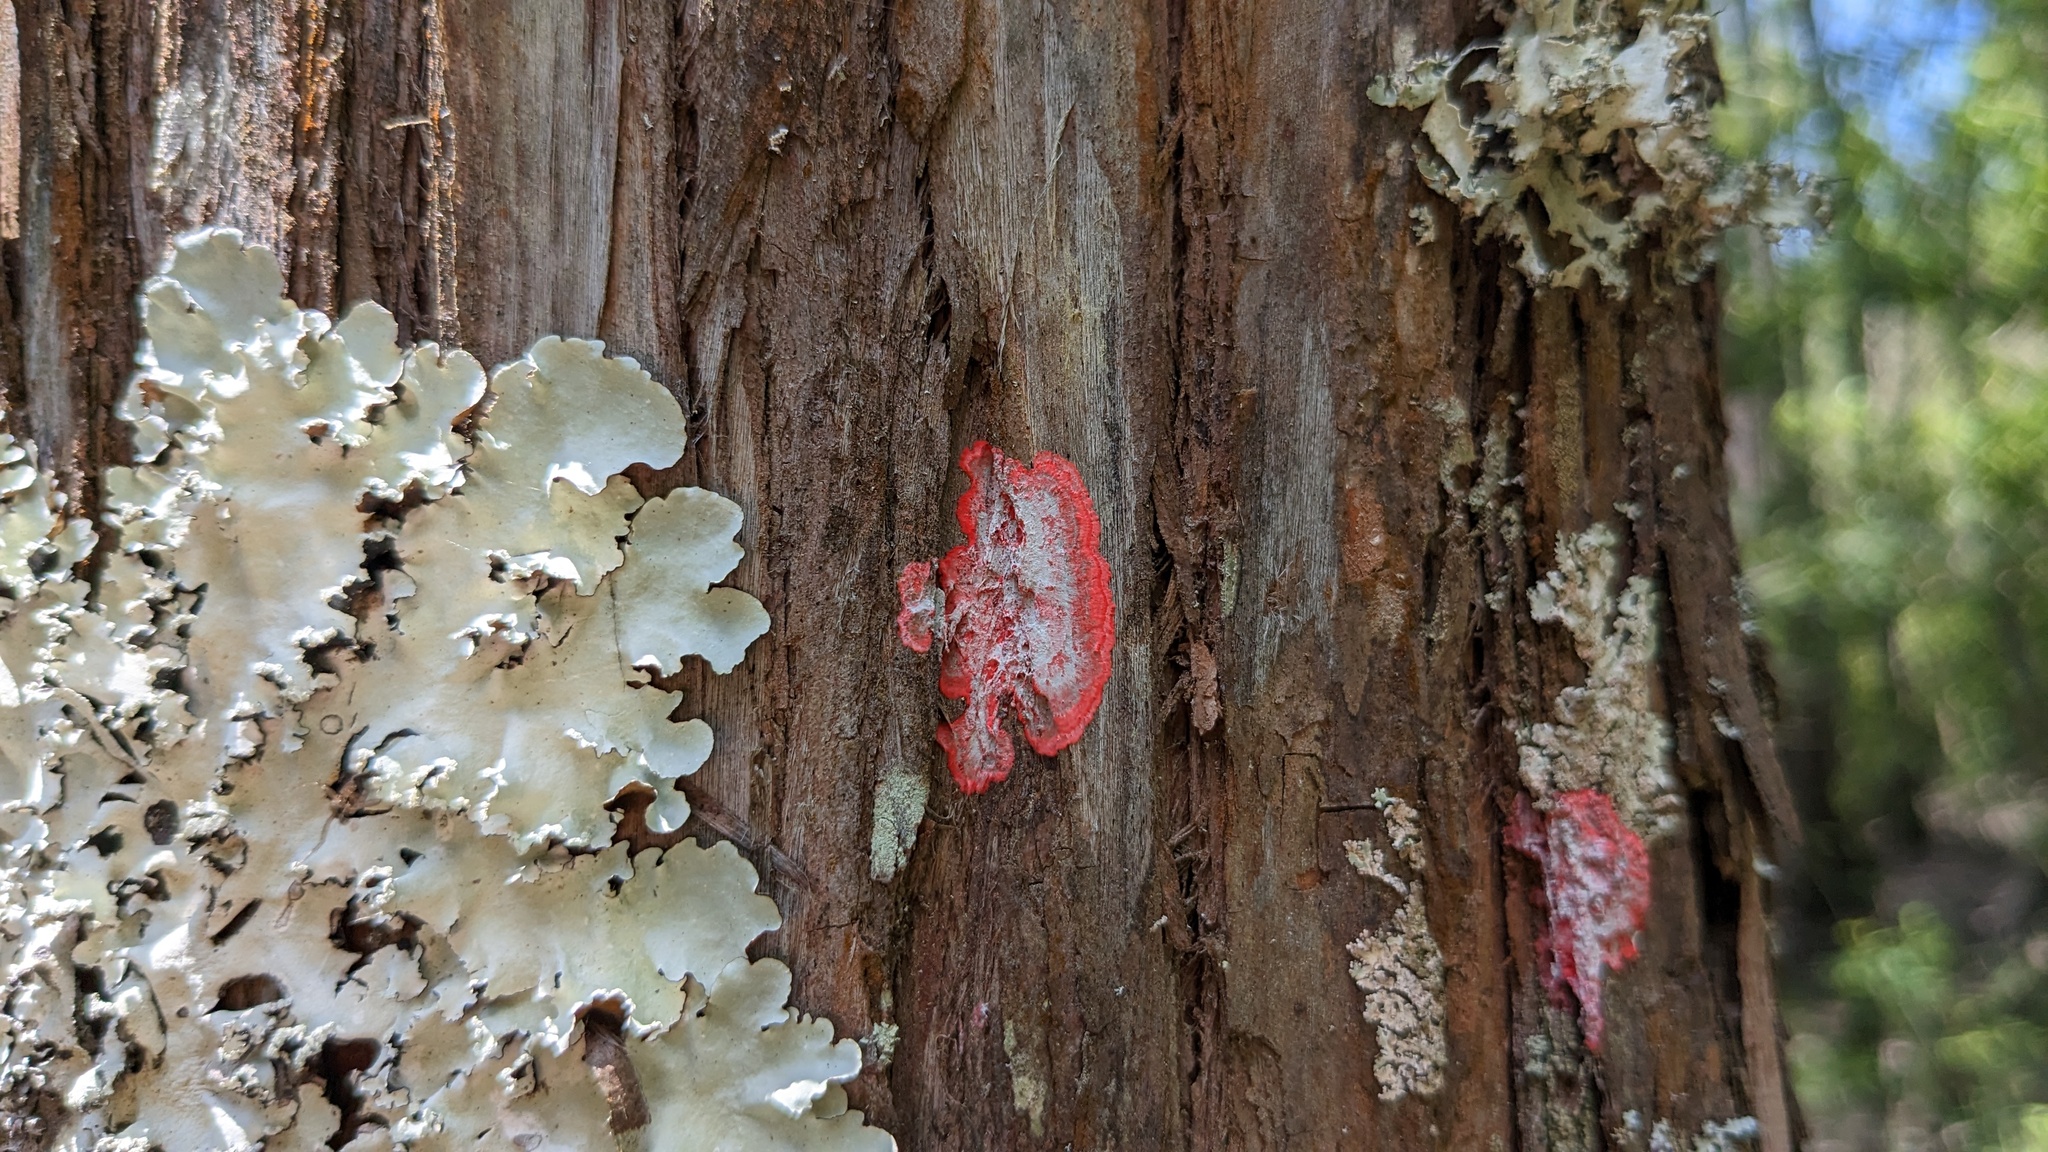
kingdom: Fungi
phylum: Ascomycota
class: Arthoniomycetes
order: Arthoniales
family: Arthoniaceae
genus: Herpothallon
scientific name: Herpothallon rubrocinctum
